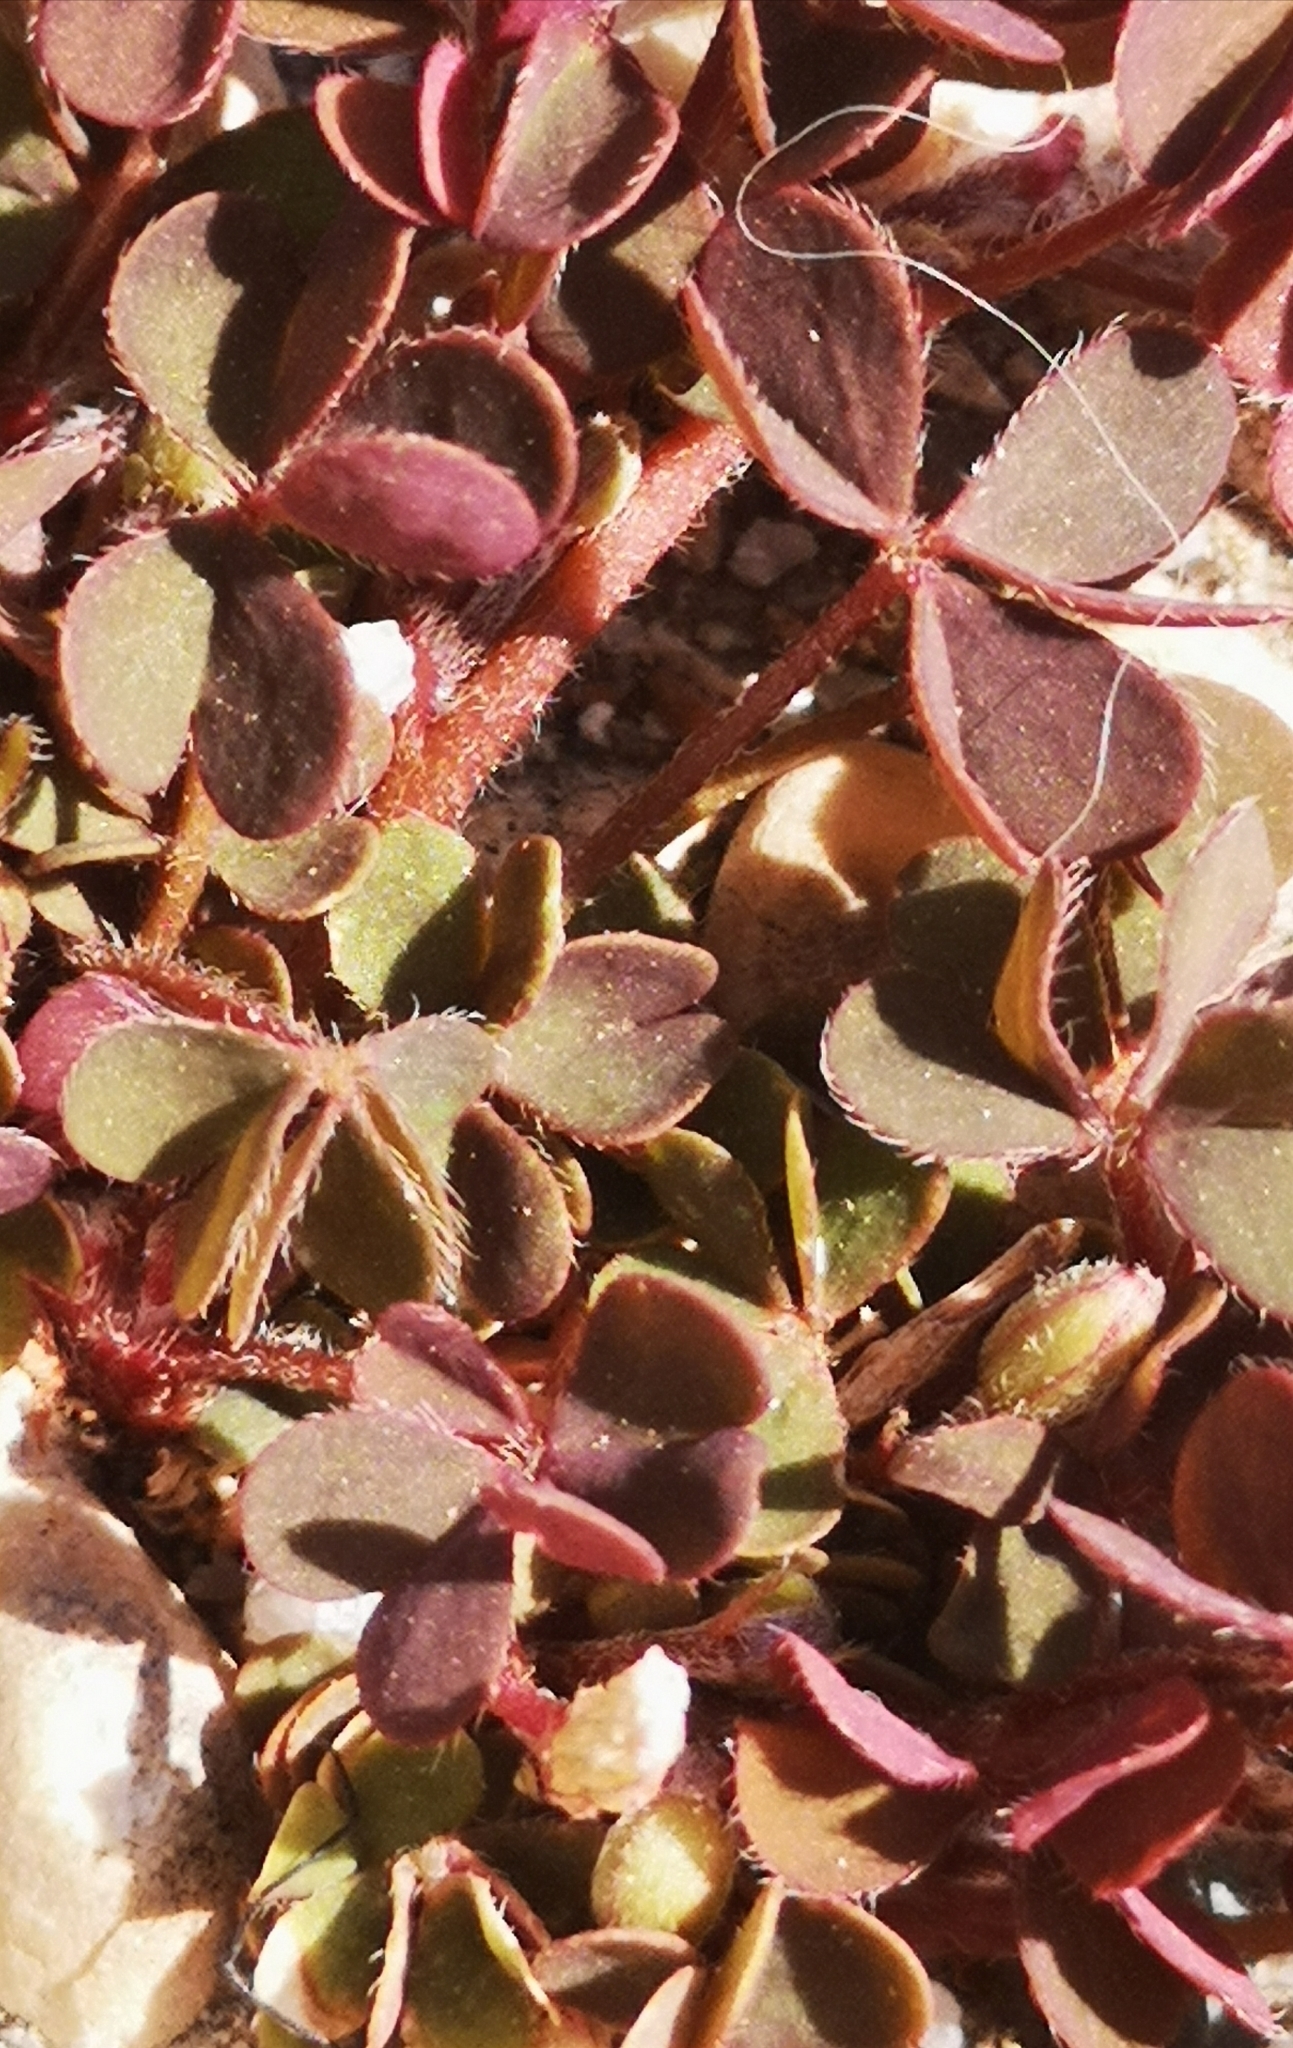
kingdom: Plantae
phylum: Tracheophyta
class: Magnoliopsida
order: Oxalidales
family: Oxalidaceae
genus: Oxalis
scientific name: Oxalis corniculata
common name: Procumbent yellow-sorrel
